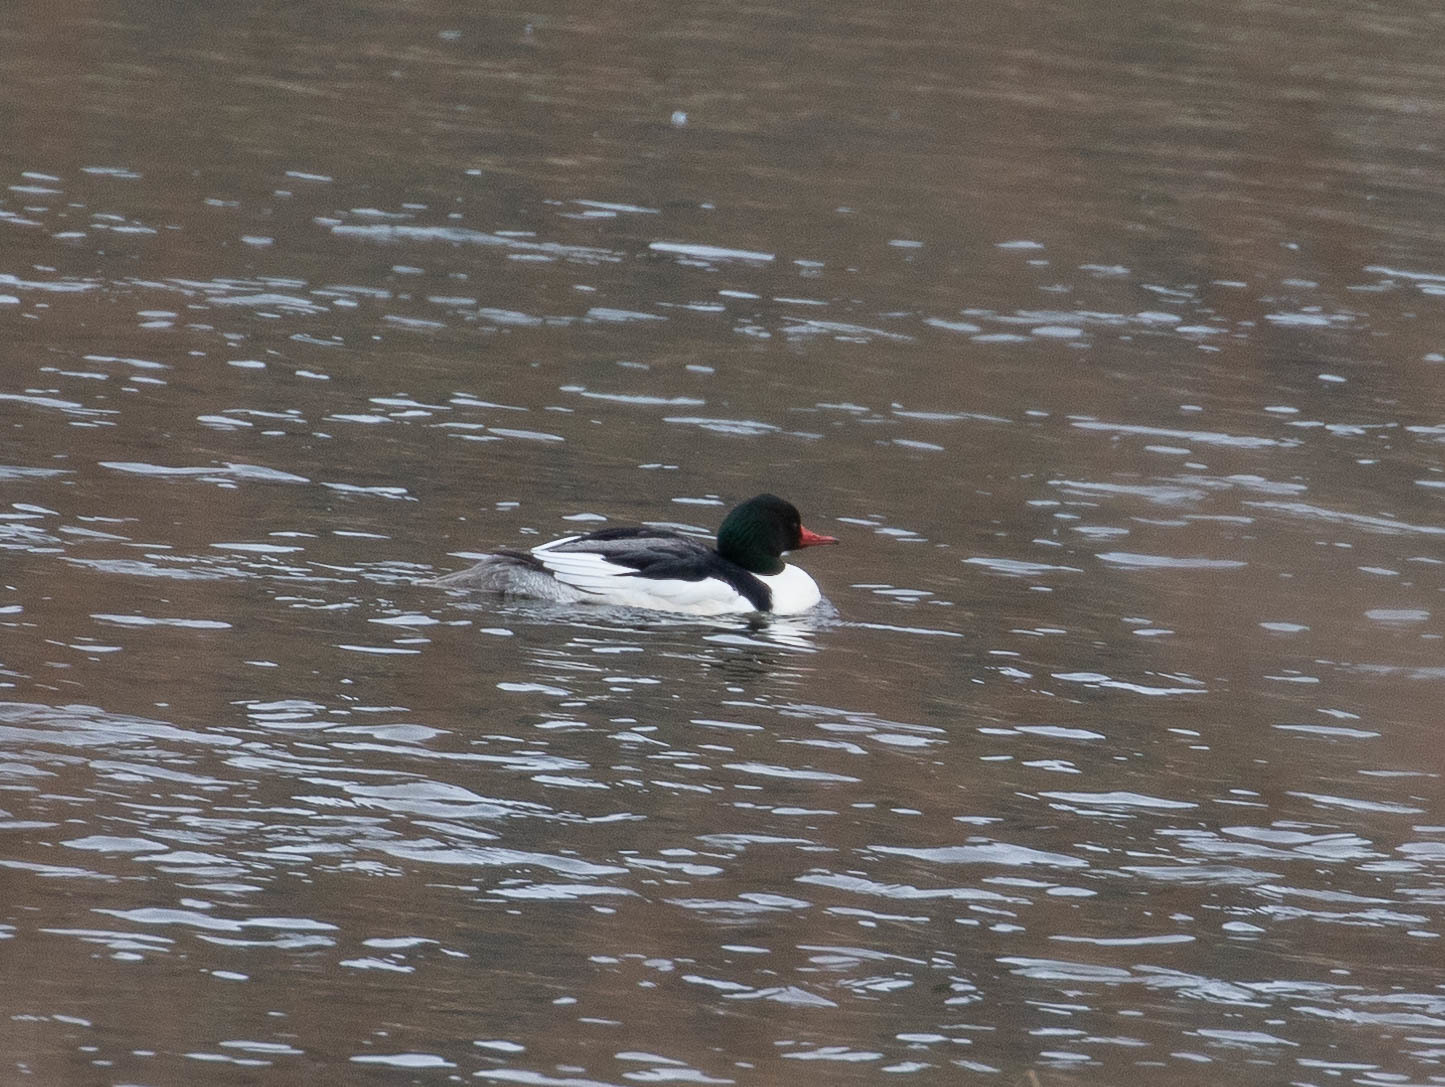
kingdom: Animalia
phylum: Chordata
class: Aves
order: Anseriformes
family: Anatidae
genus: Mergus
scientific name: Mergus merganser
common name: Common merganser
